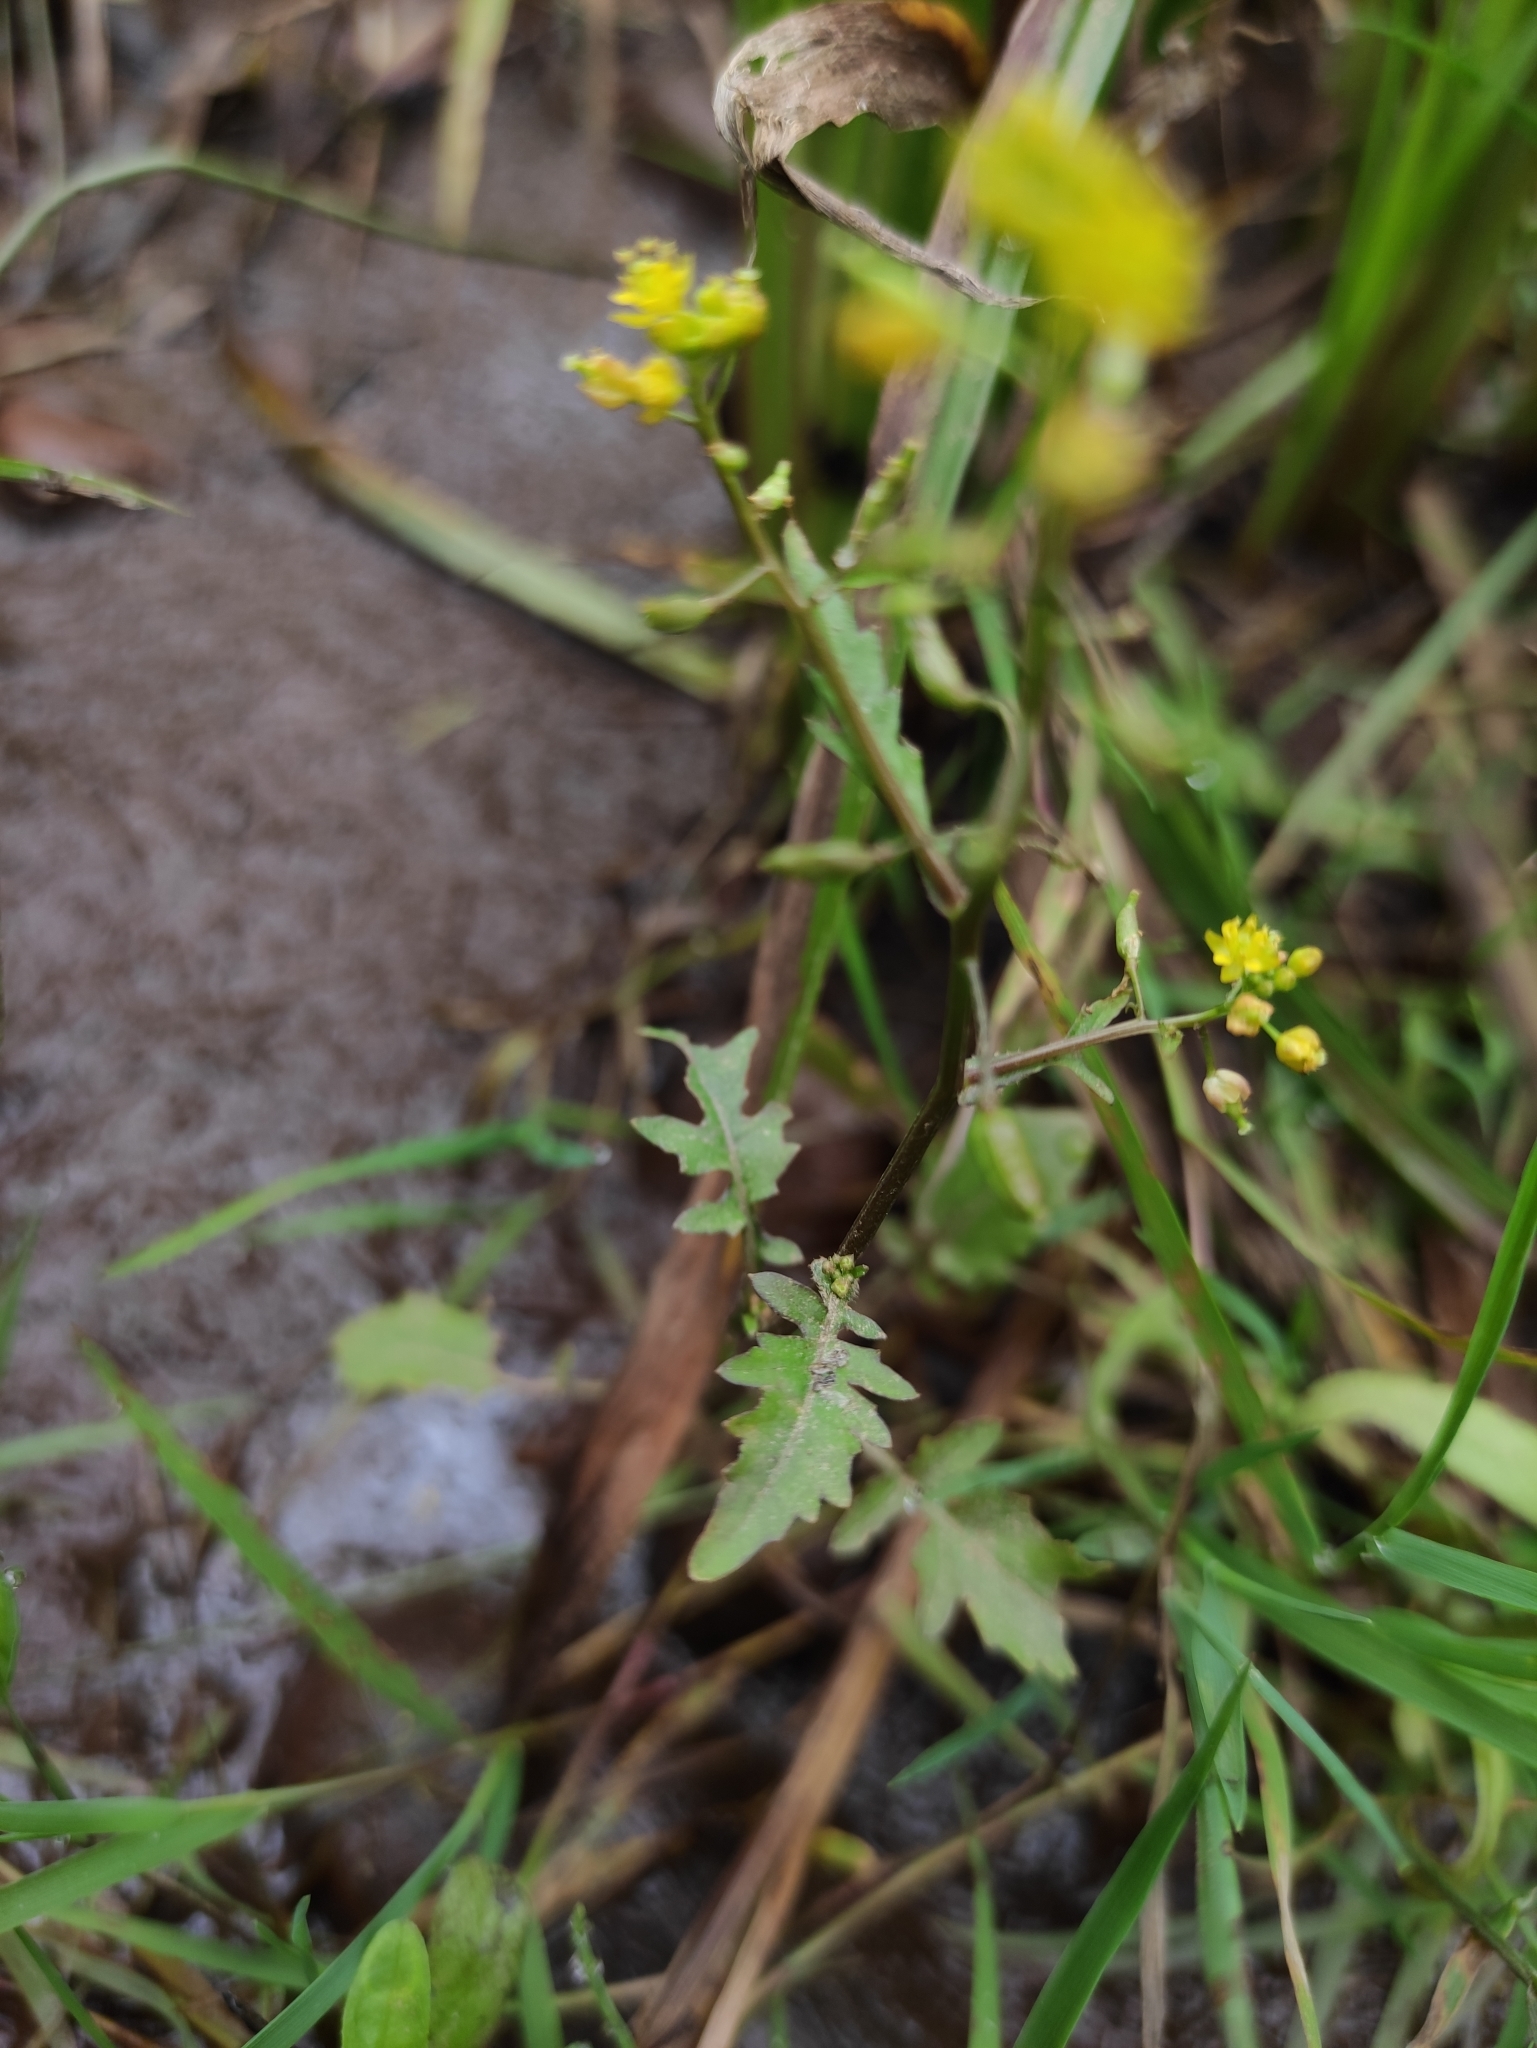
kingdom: Plantae
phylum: Tracheophyta
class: Magnoliopsida
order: Brassicales
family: Brassicaceae
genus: Rorippa
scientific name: Rorippa palustris
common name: Marsh yellow-cress
